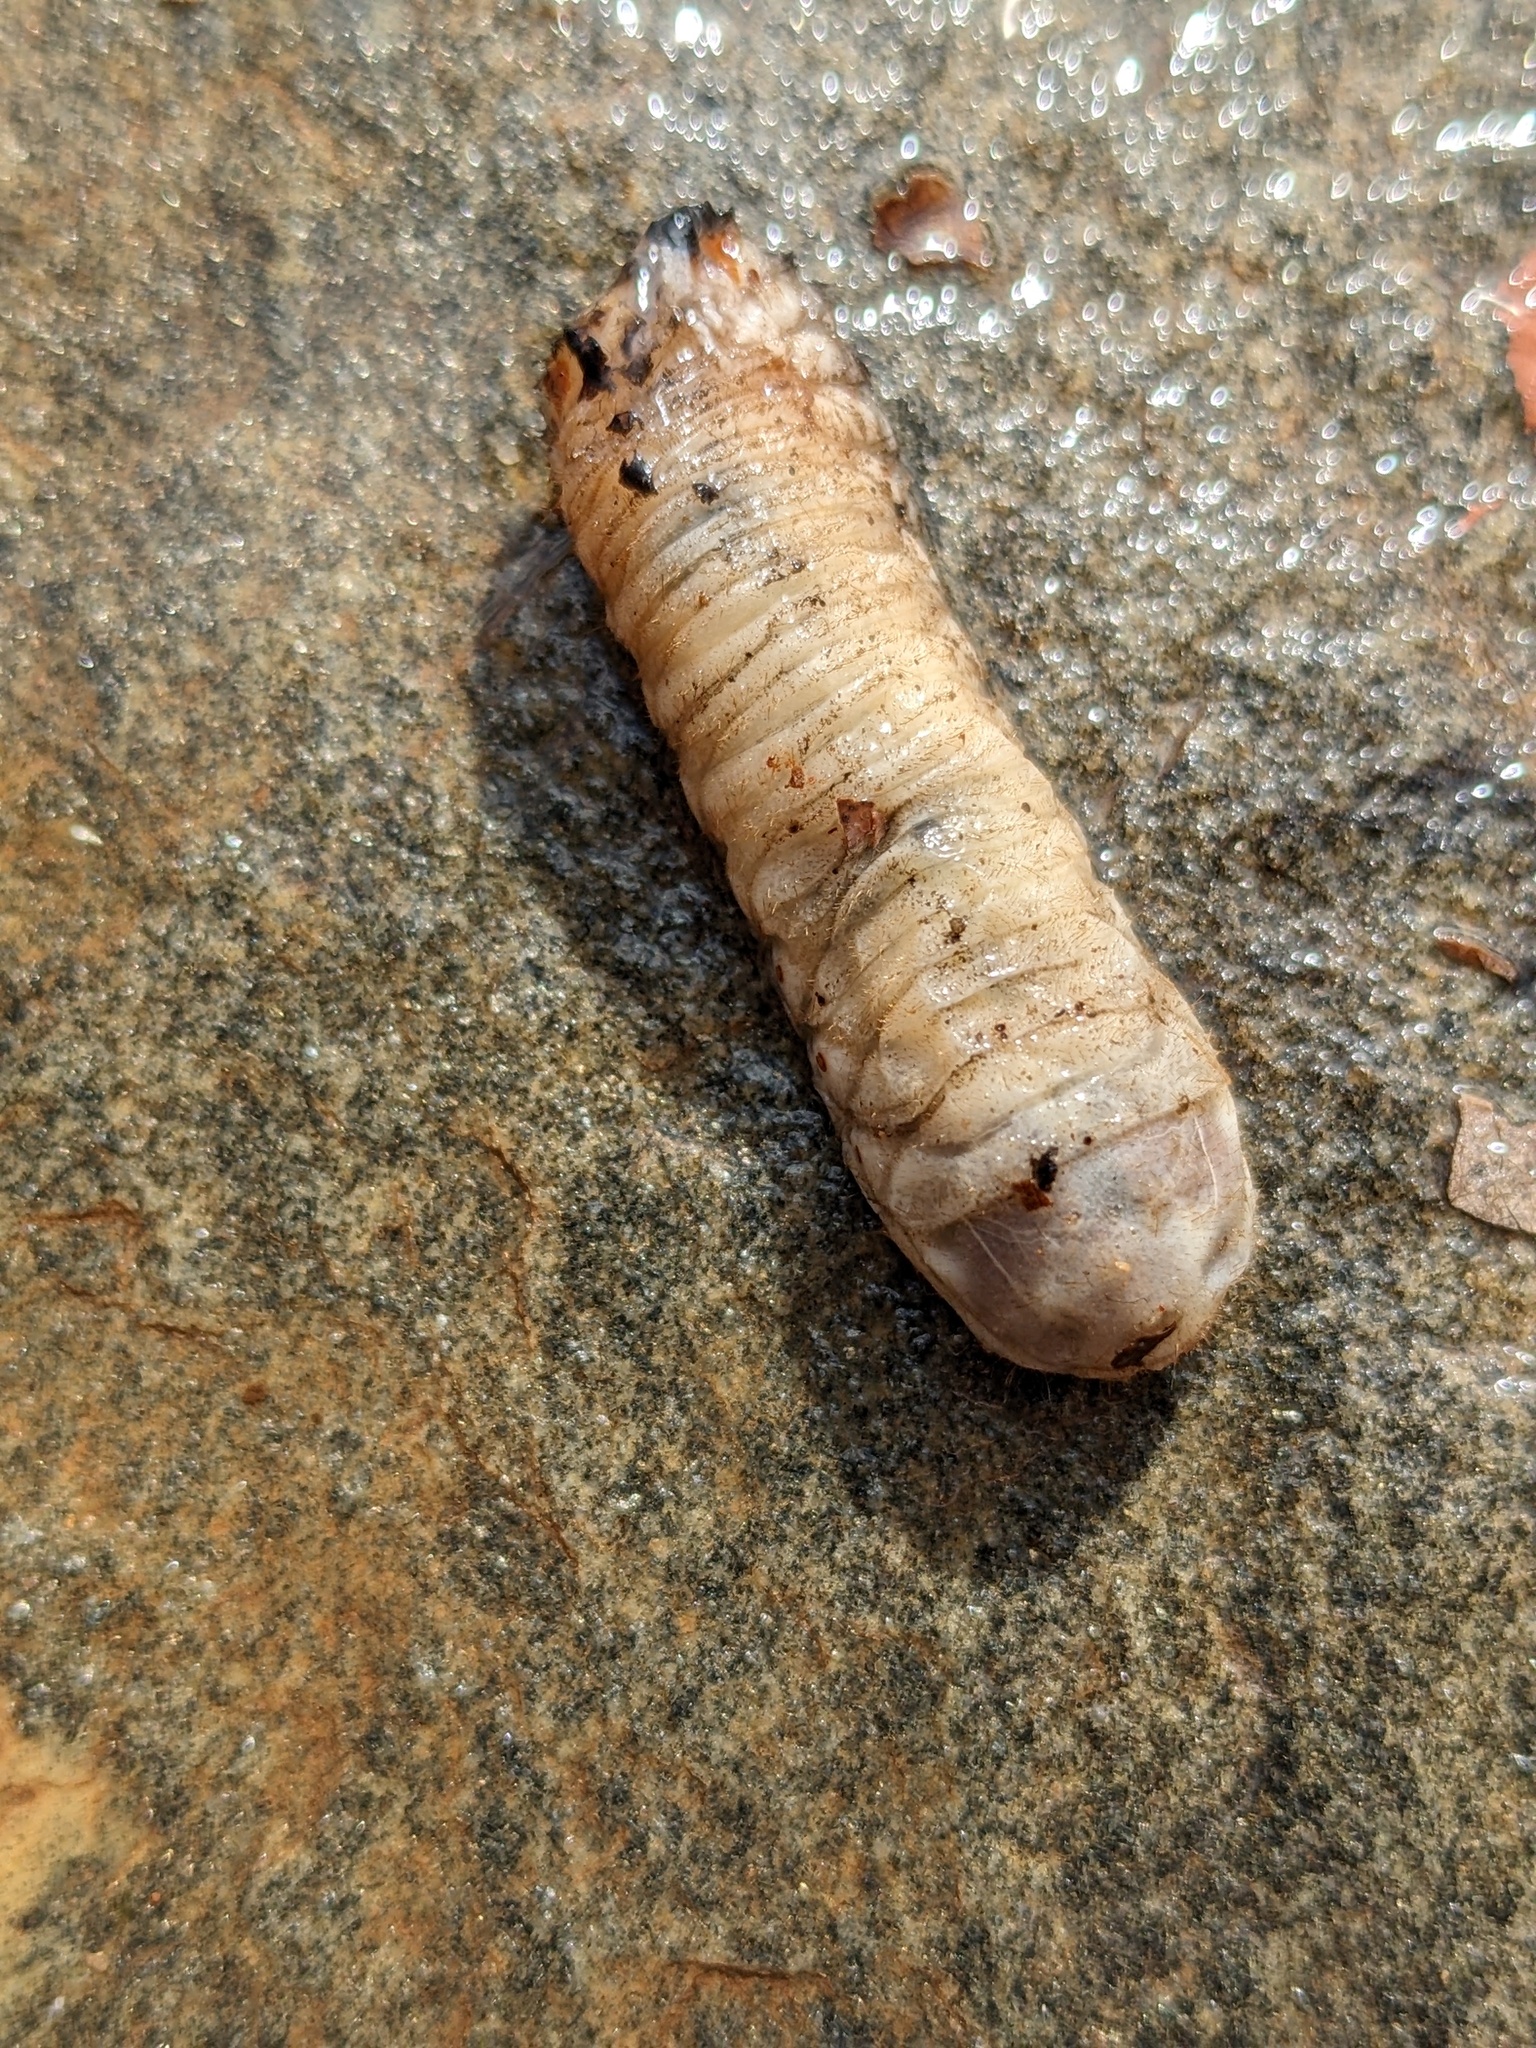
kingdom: Animalia
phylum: Arthropoda
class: Insecta
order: Coleoptera
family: Scarabaeidae
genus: Cotinis
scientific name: Cotinis nitida
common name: Common green june beetle
